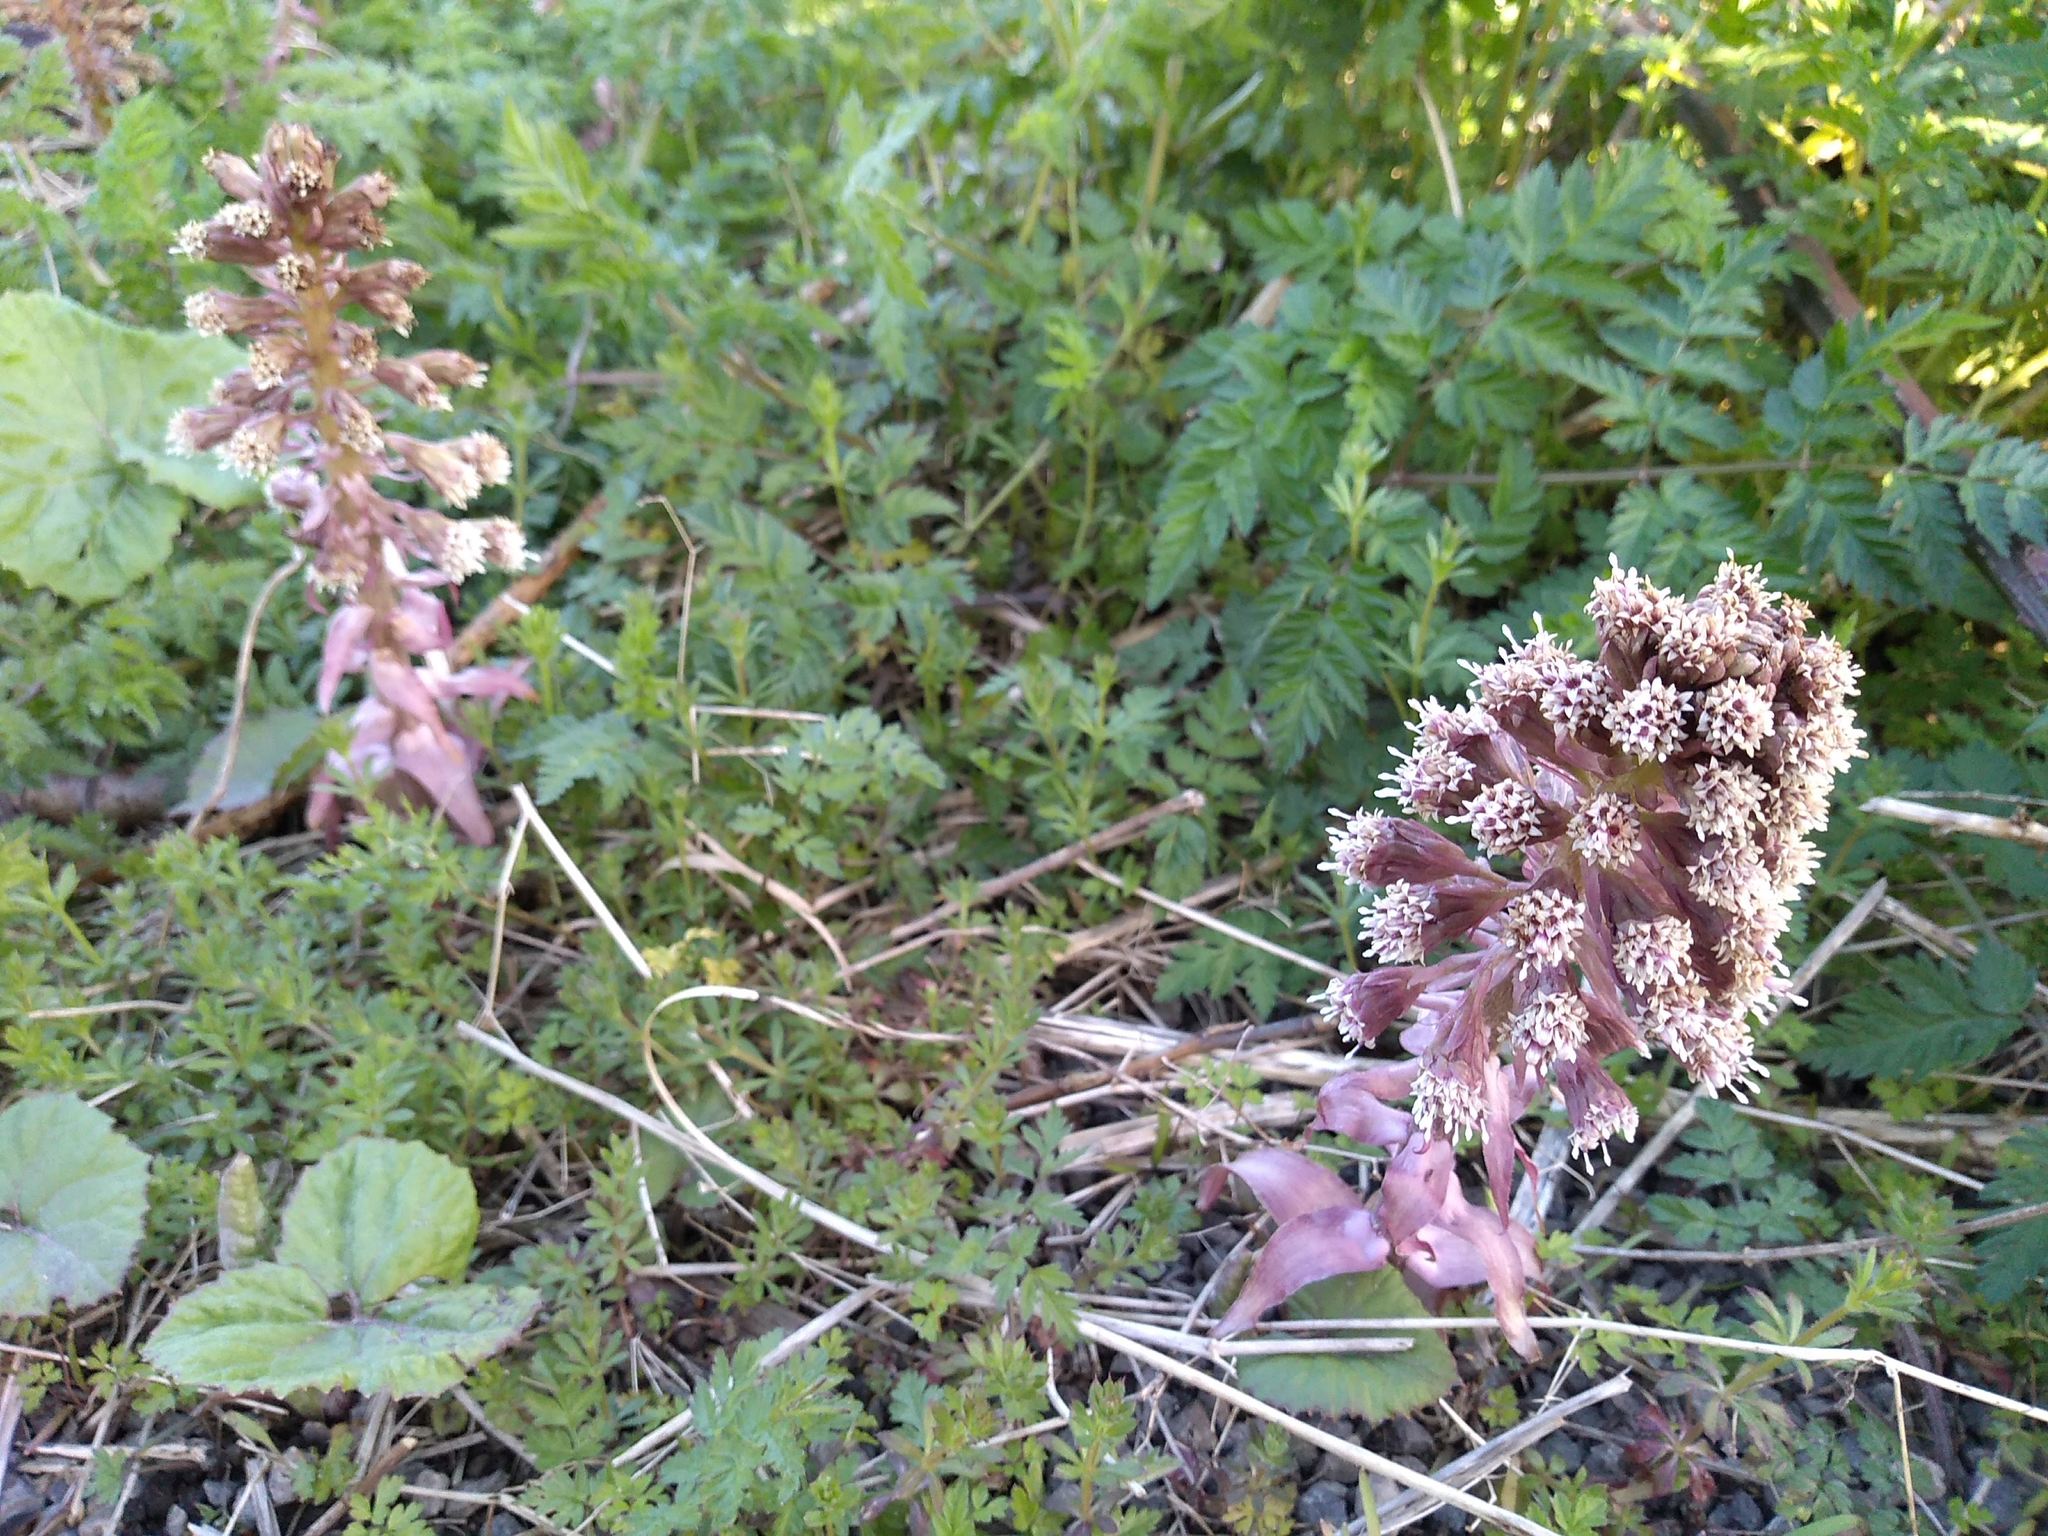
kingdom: Plantae
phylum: Tracheophyta
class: Magnoliopsida
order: Asterales
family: Asteraceae
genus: Petasites
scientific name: Petasites hybridus
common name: Butterbur
